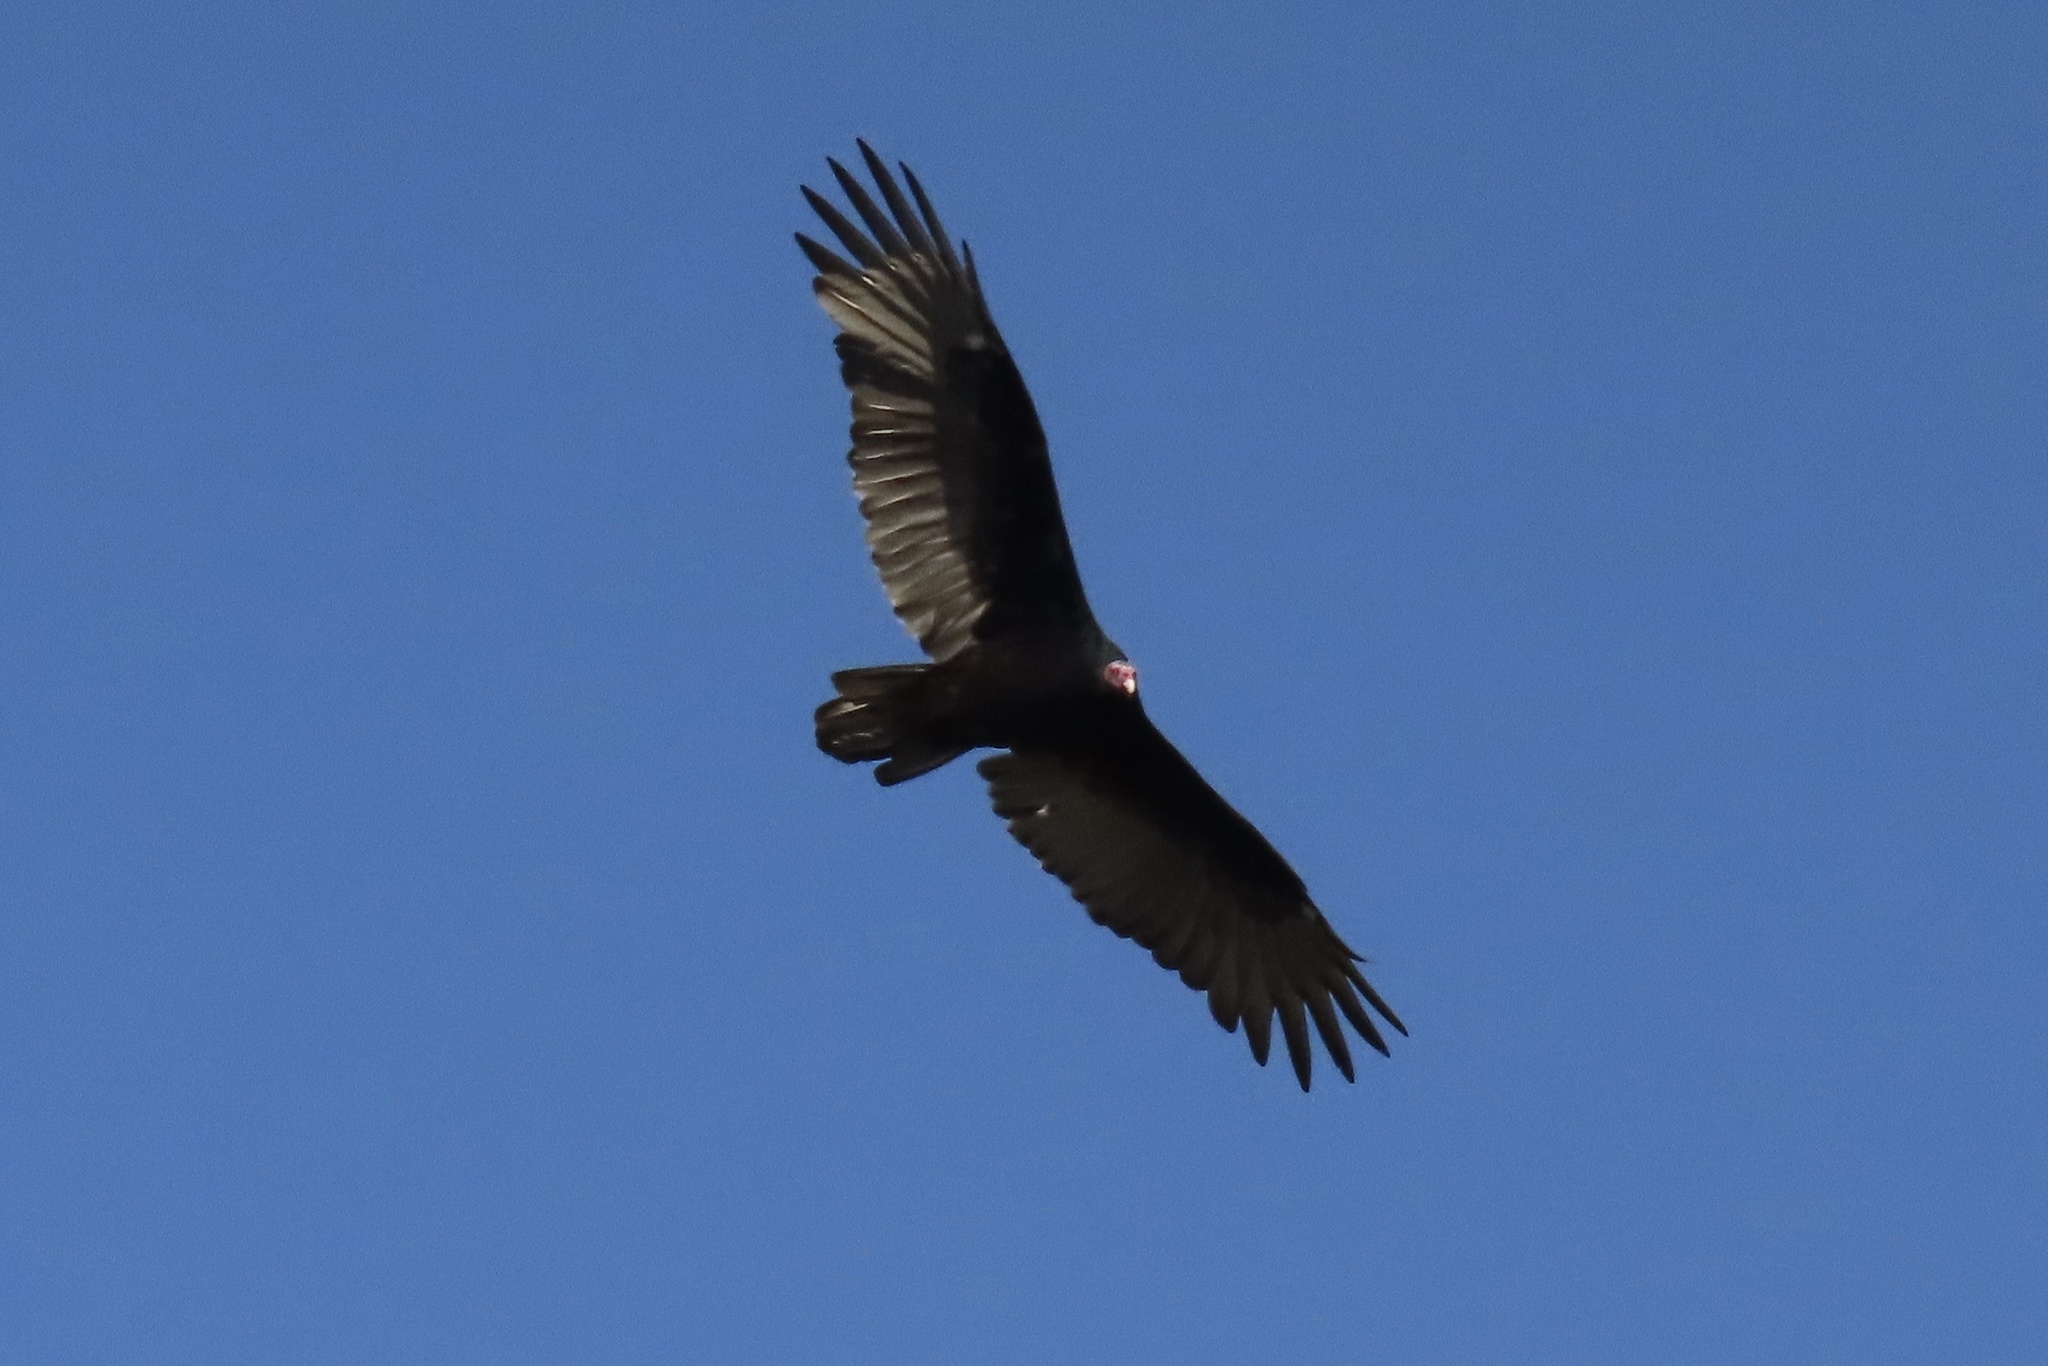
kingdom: Animalia
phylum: Chordata
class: Aves
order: Accipitriformes
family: Cathartidae
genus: Cathartes
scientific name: Cathartes aura
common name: Turkey vulture
